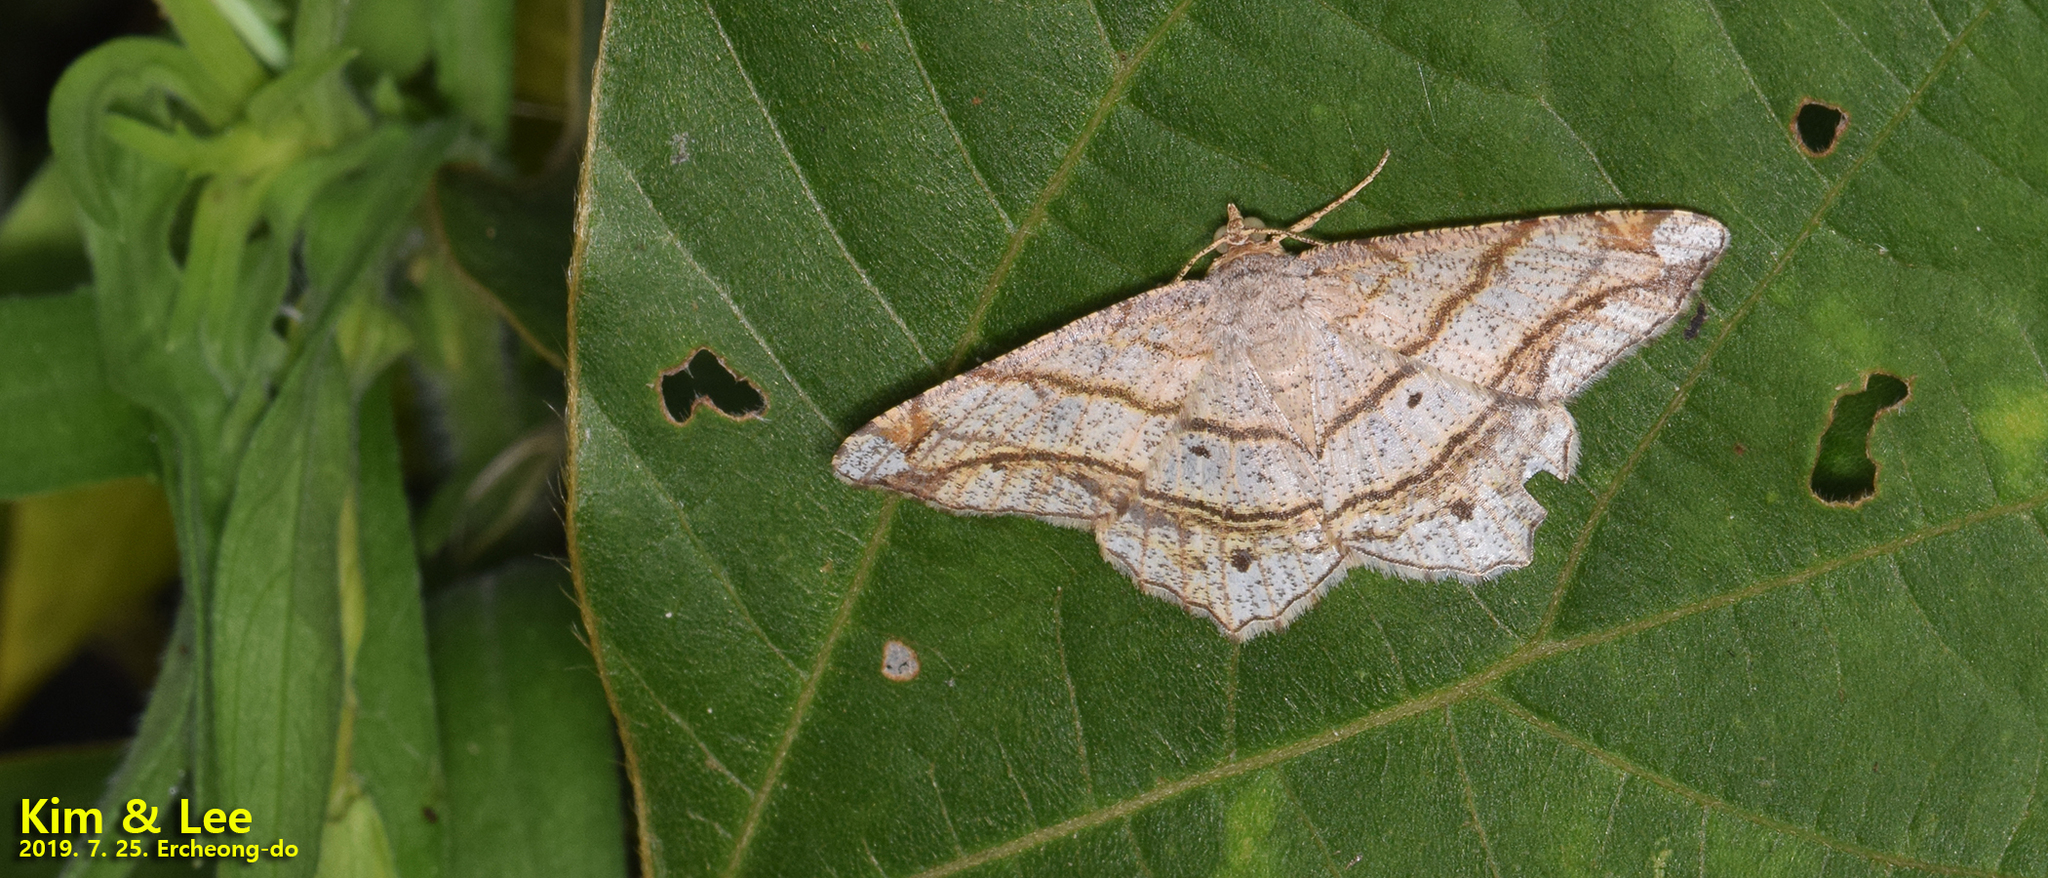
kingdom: Animalia
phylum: Arthropoda
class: Insecta
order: Lepidoptera
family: Geometridae
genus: Chiasmia
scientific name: Chiasmia defixaria
